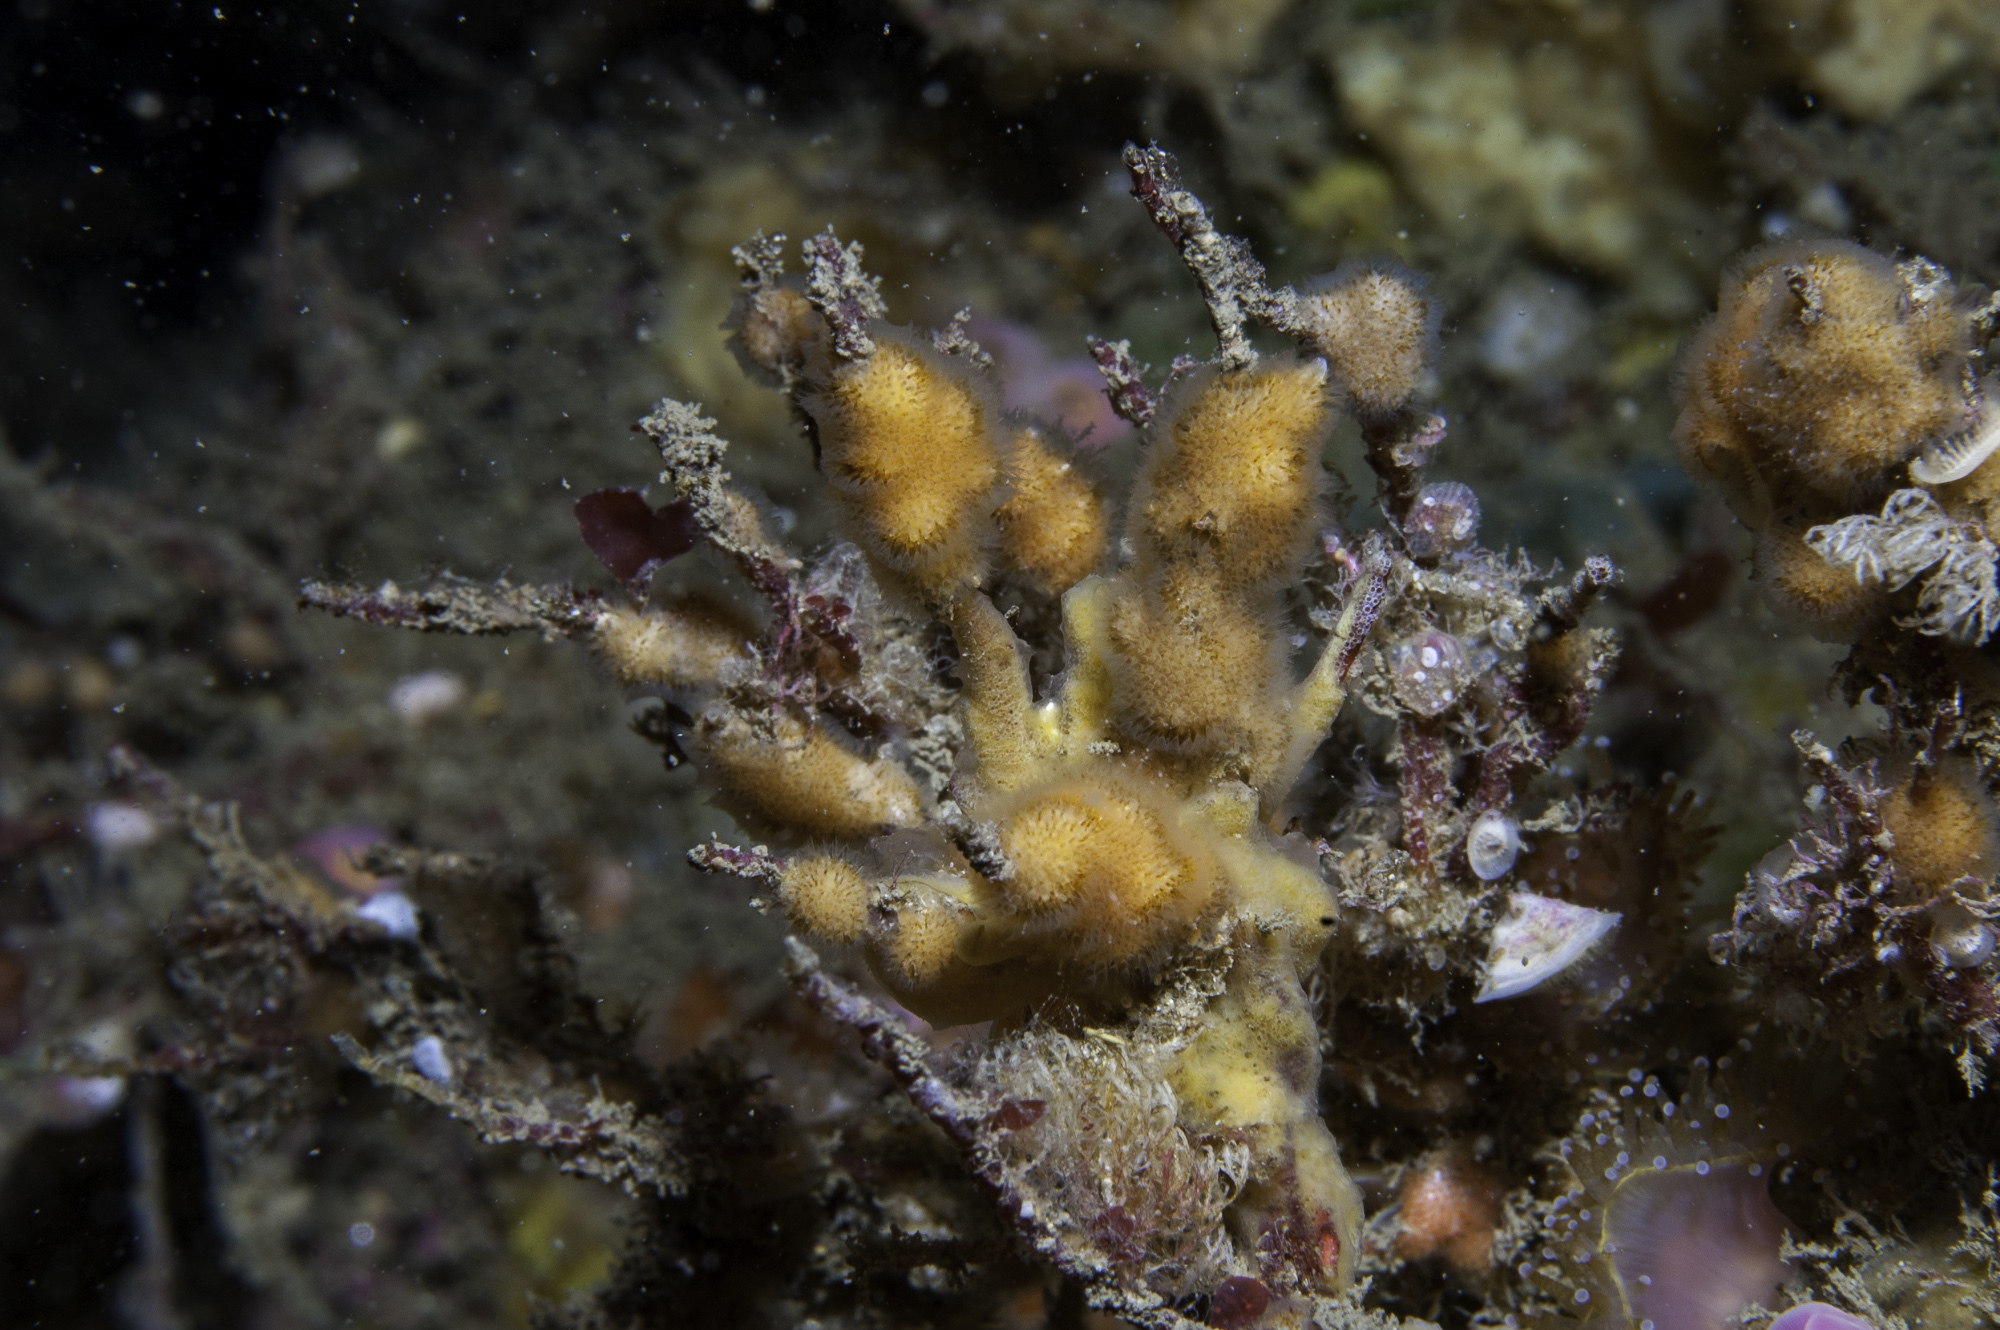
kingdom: Animalia
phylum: Bryozoa
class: Gymnolaemata
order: Cheilostomatida
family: Celleporidae
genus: Turbicellepora
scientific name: Turbicellepora avicularis
